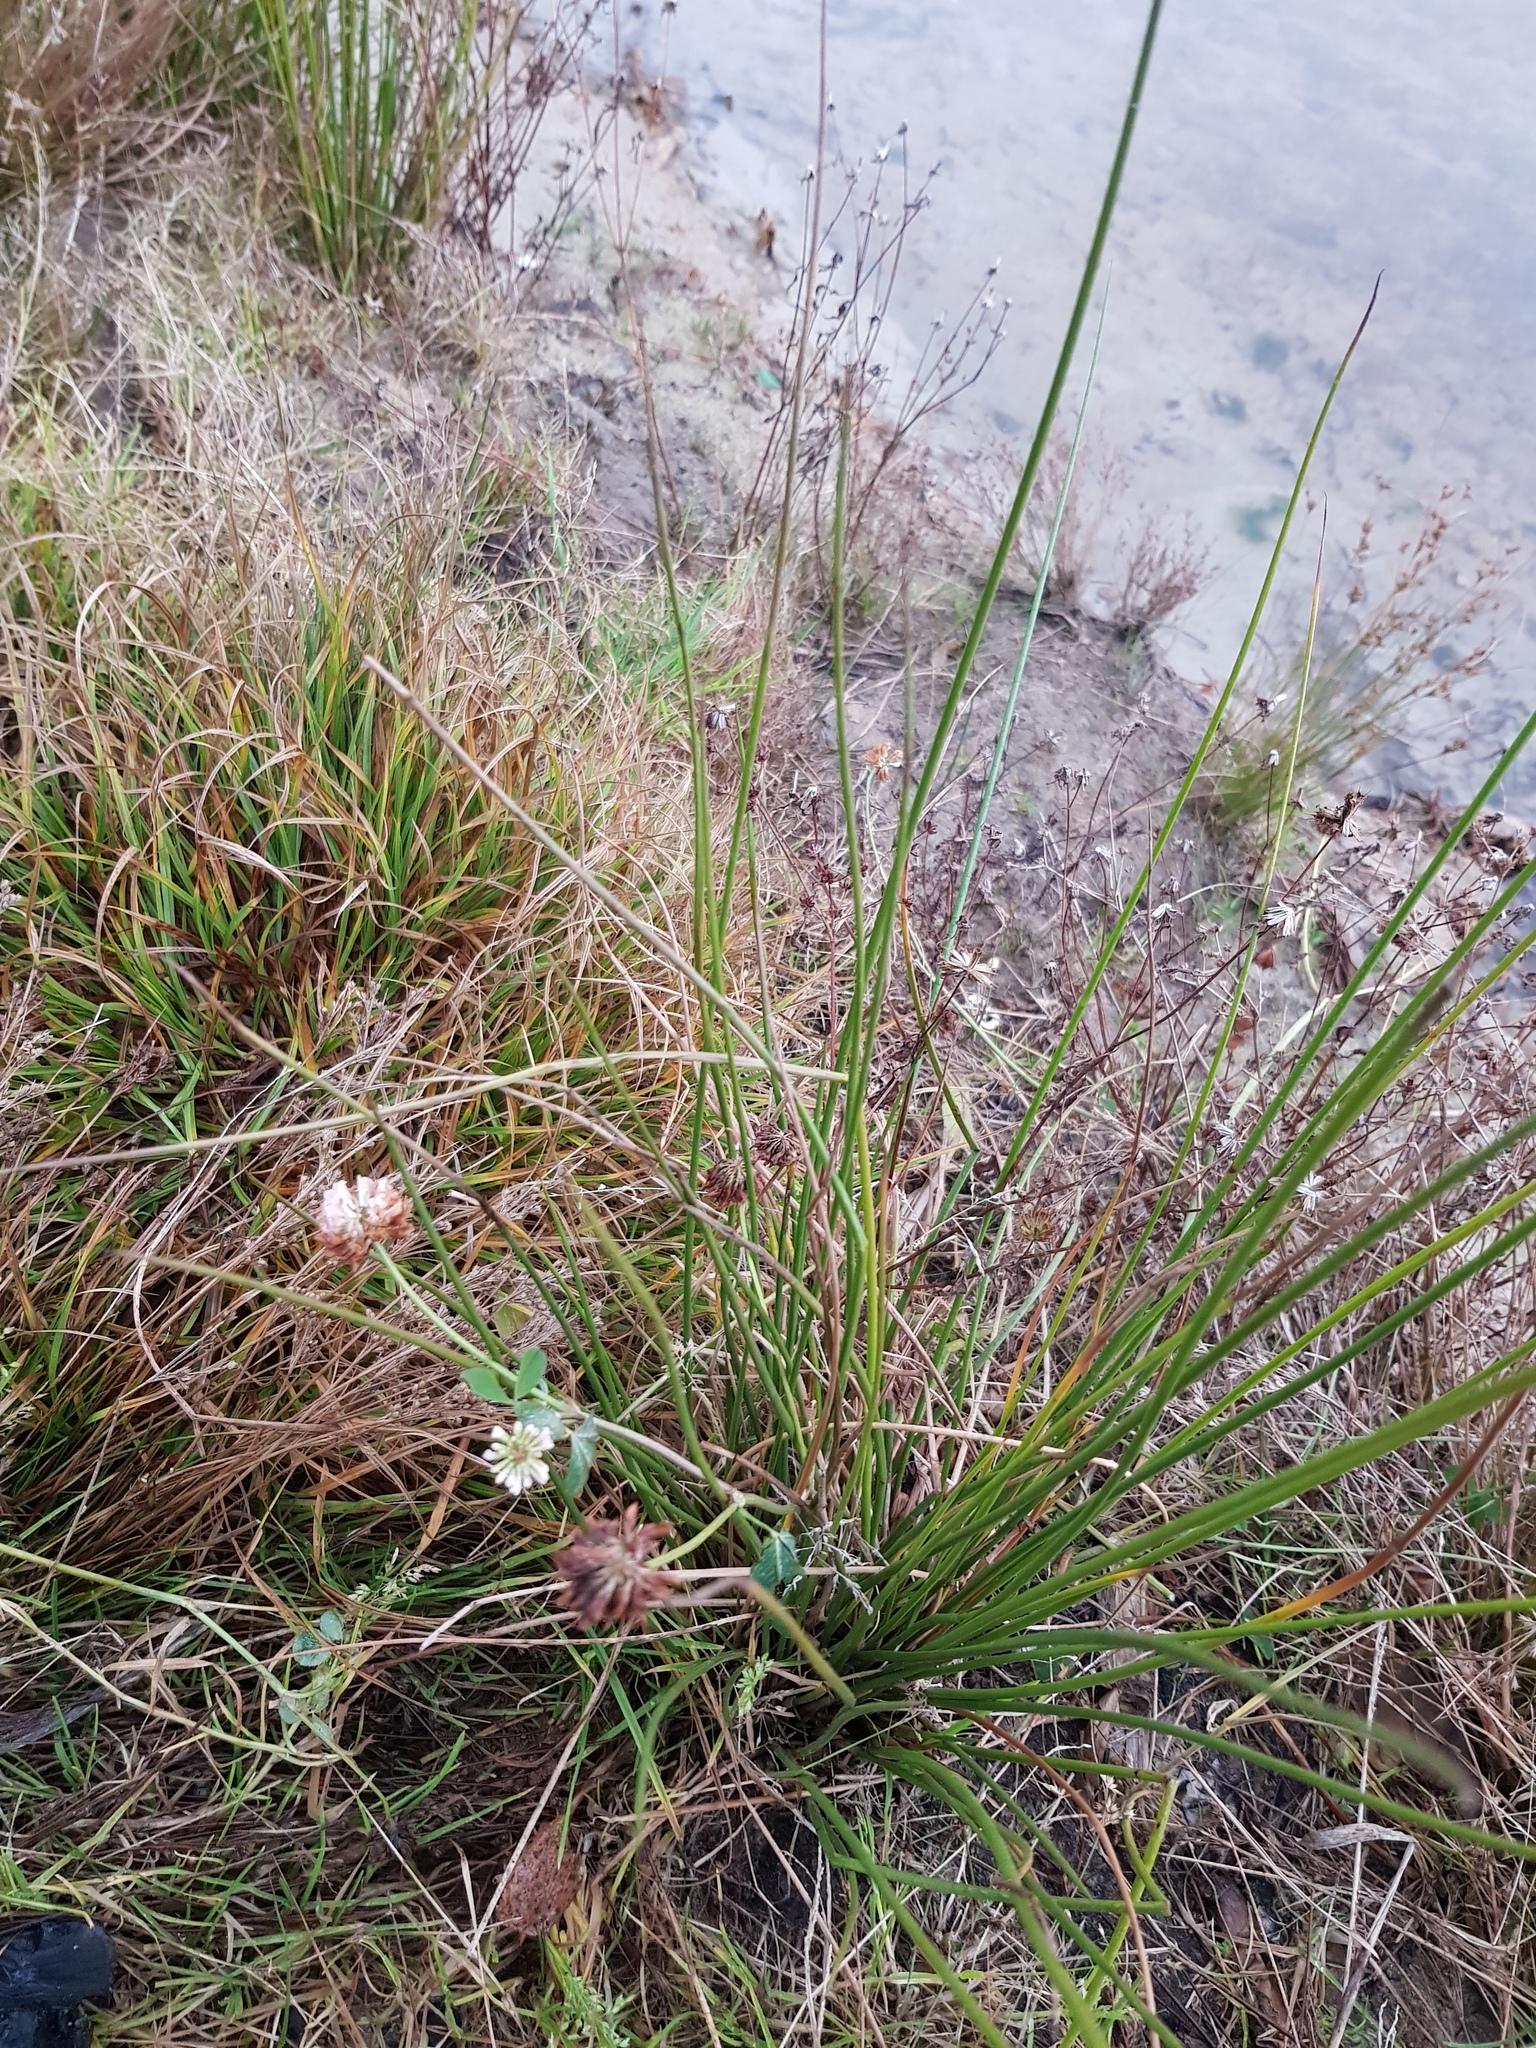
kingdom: Plantae
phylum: Tracheophyta
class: Magnoliopsida
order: Fabales
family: Fabaceae
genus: Trifolium
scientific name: Trifolium hybridum
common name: Alsike clover
